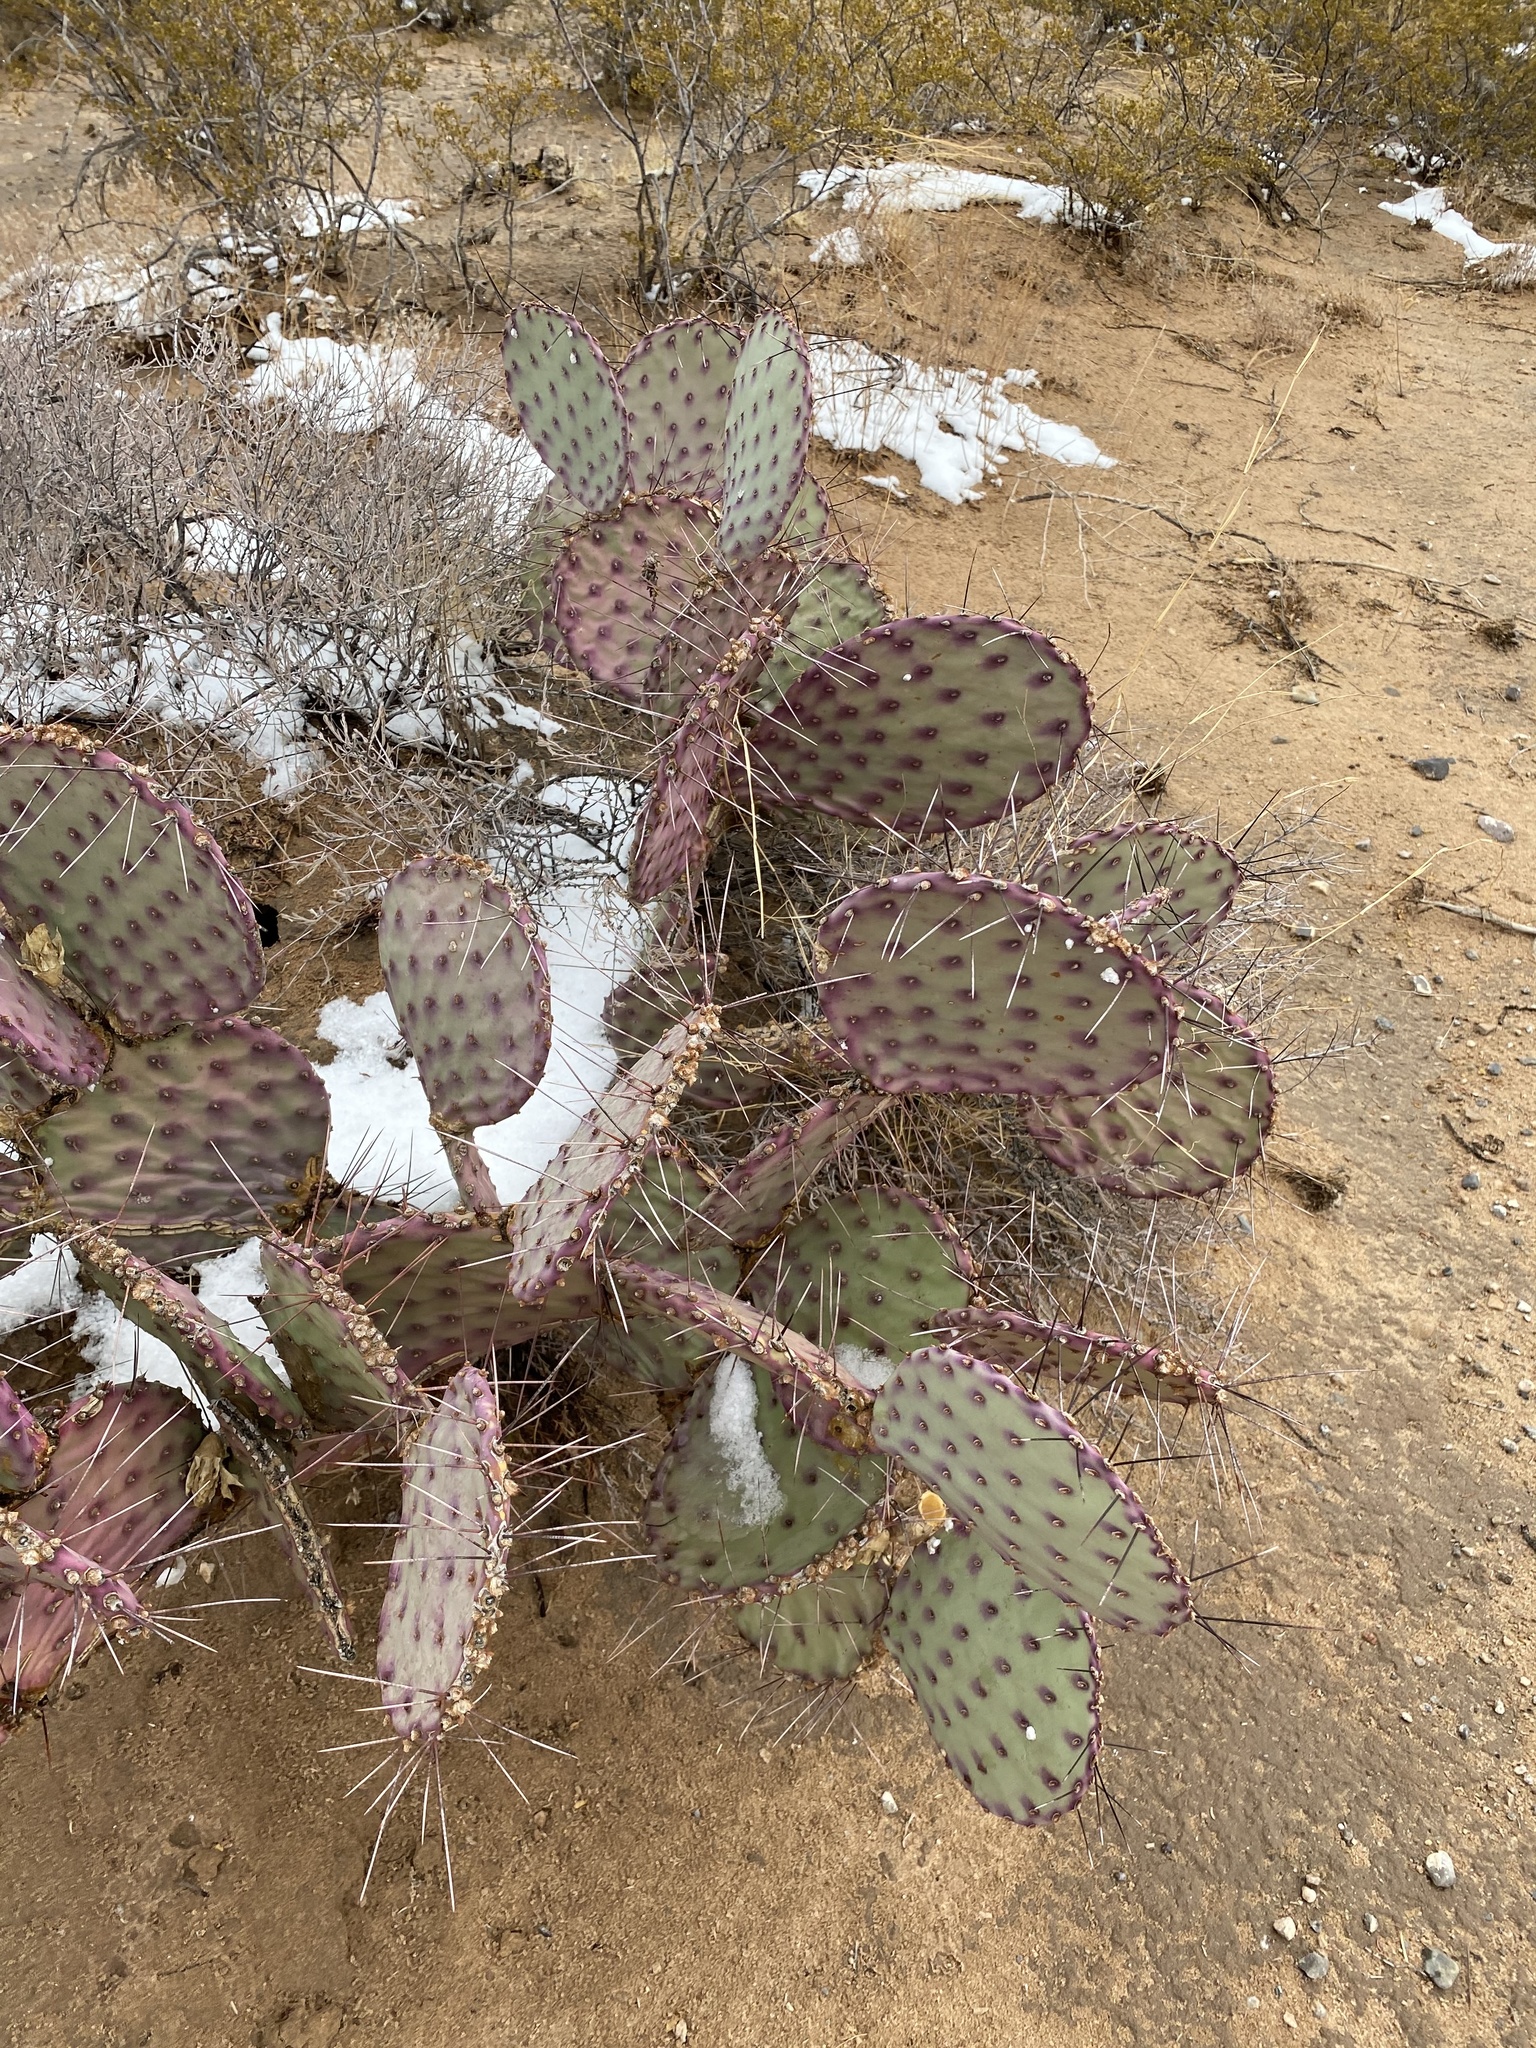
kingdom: Plantae
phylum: Tracheophyta
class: Magnoliopsida
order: Caryophyllales
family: Cactaceae
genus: Opuntia
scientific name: Opuntia macrocentra
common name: Purple prickly-pear
